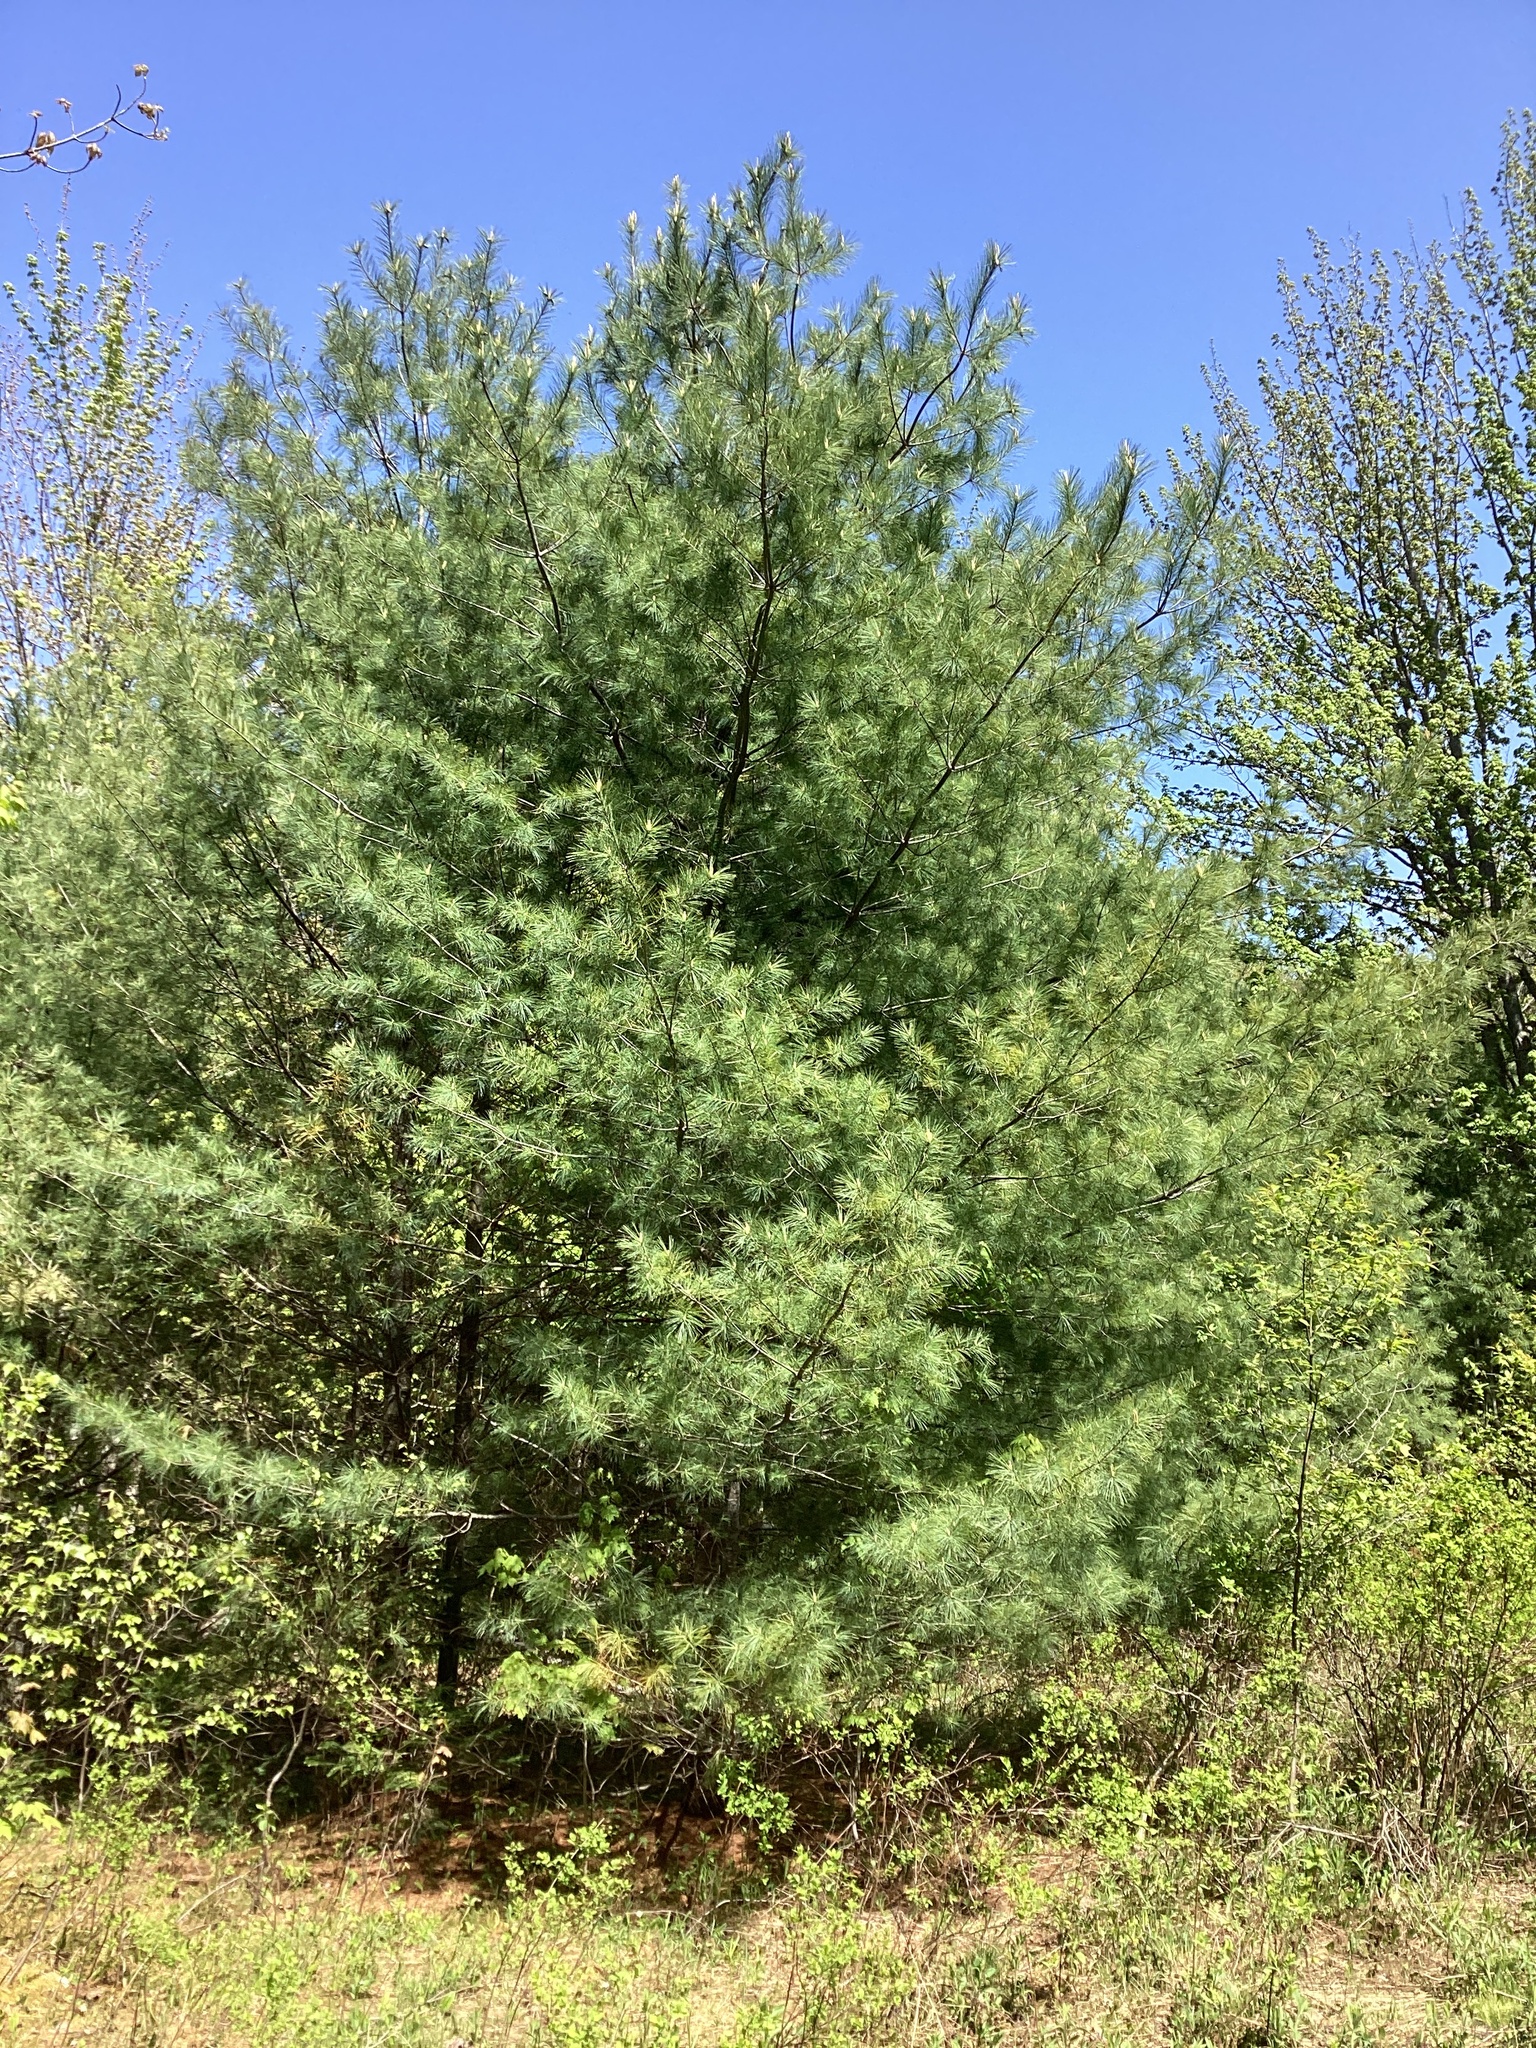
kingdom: Plantae
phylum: Tracheophyta
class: Pinopsida
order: Pinales
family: Pinaceae
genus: Pinus
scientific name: Pinus strobus
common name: Weymouth pine
